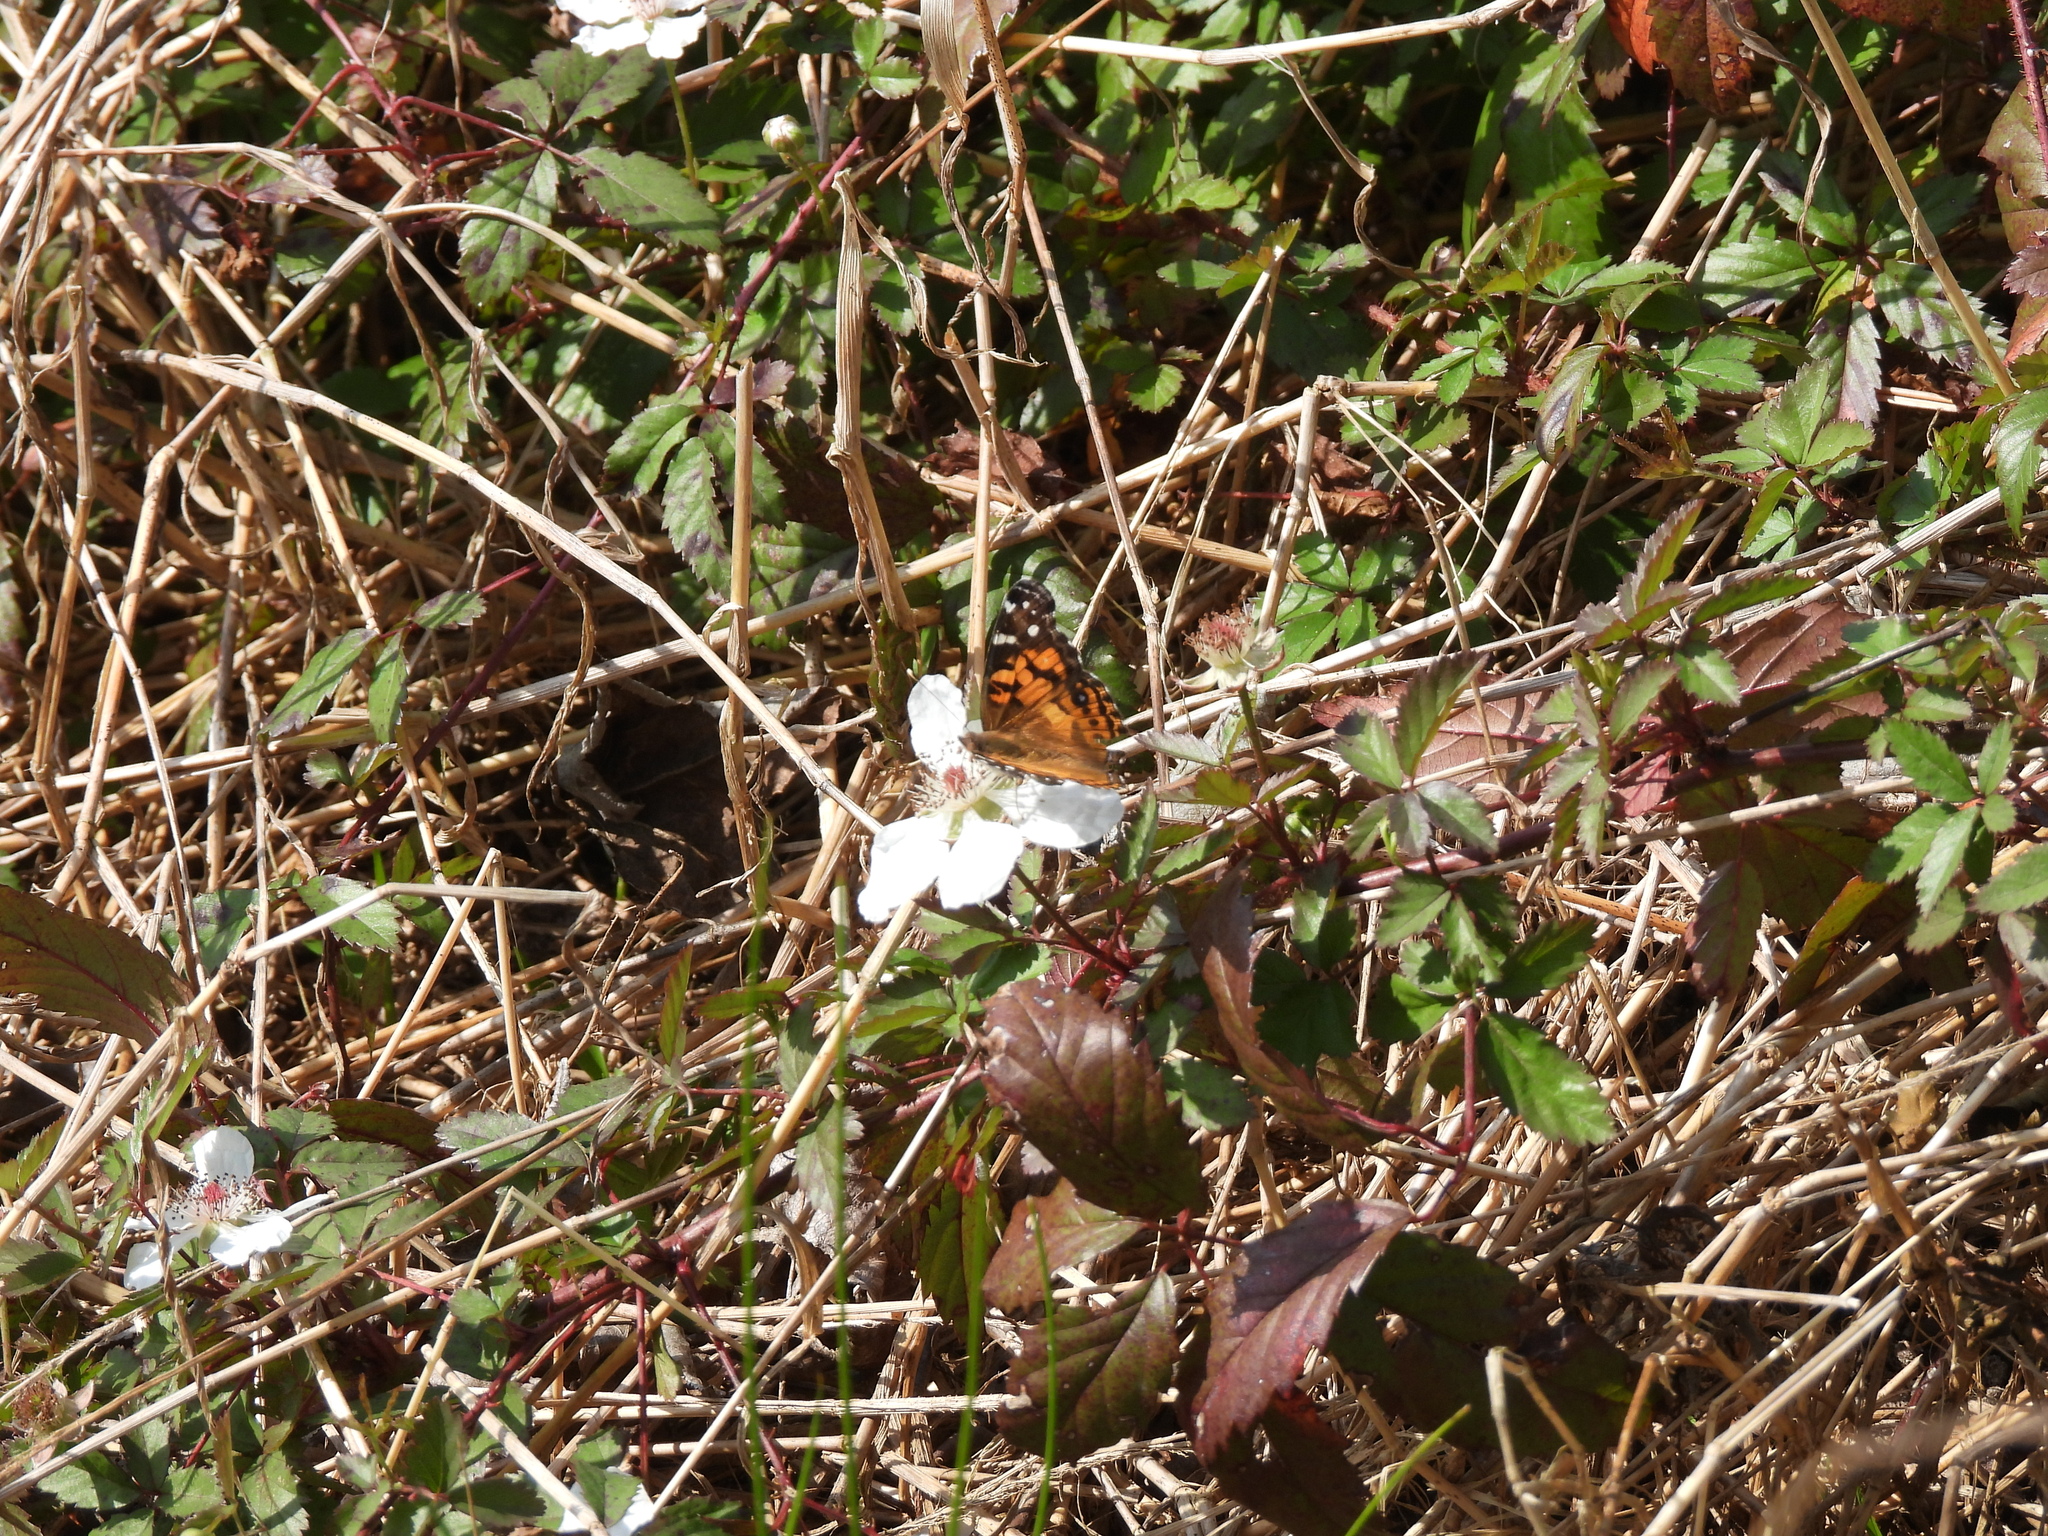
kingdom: Animalia
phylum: Arthropoda
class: Insecta
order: Lepidoptera
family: Nymphalidae
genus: Vanessa
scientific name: Vanessa virginiensis
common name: American lady
